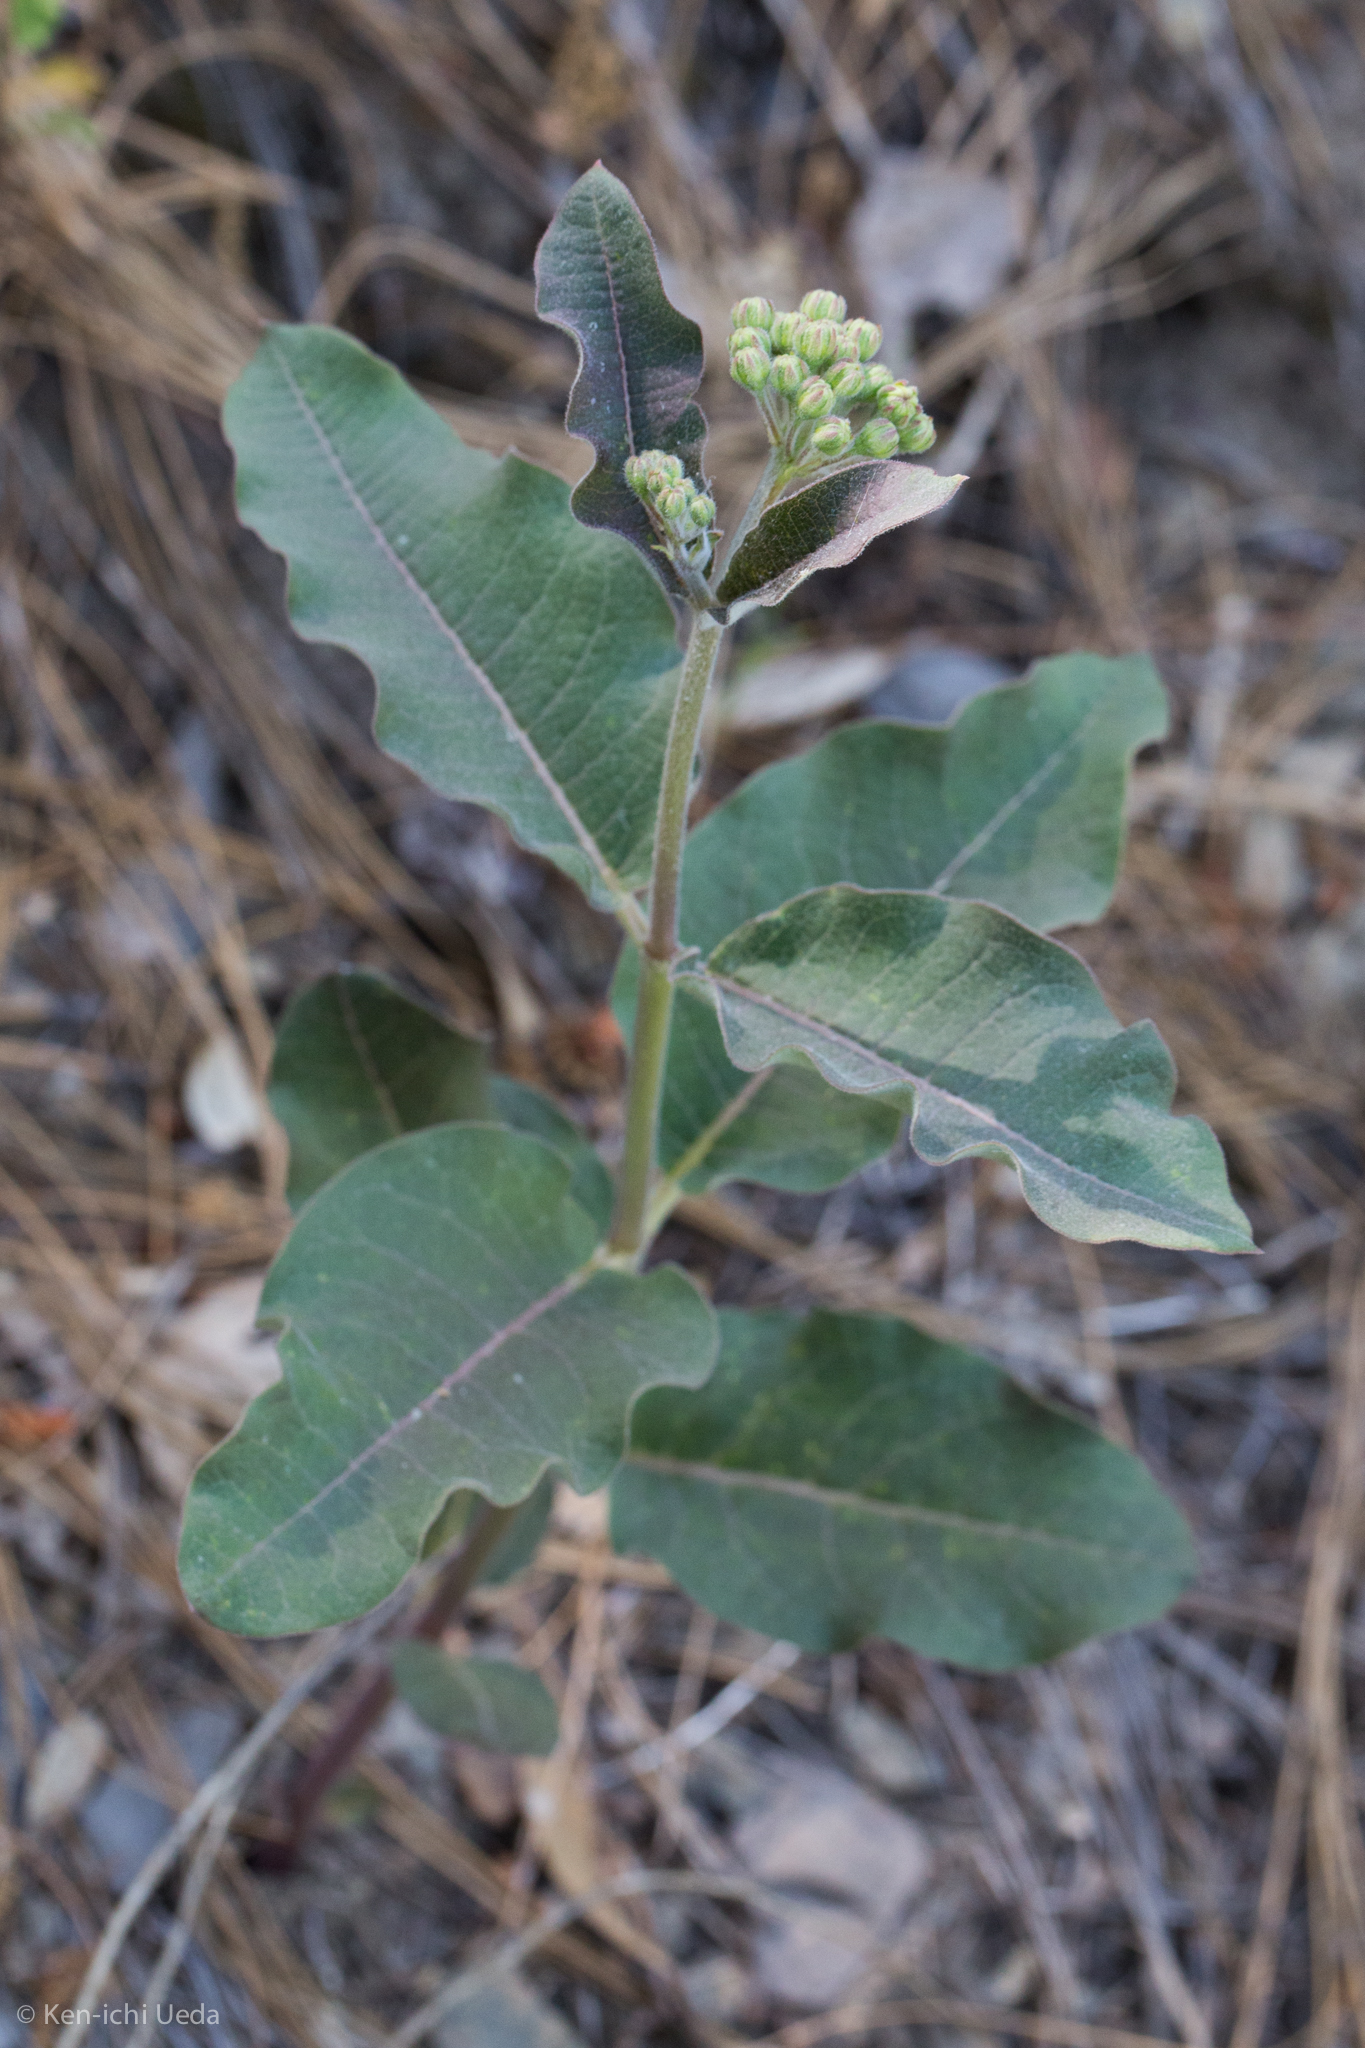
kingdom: Plantae
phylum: Tracheophyta
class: Magnoliopsida
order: Gentianales
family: Apocynaceae
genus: Asclepias
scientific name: Asclepias hypoleuca
